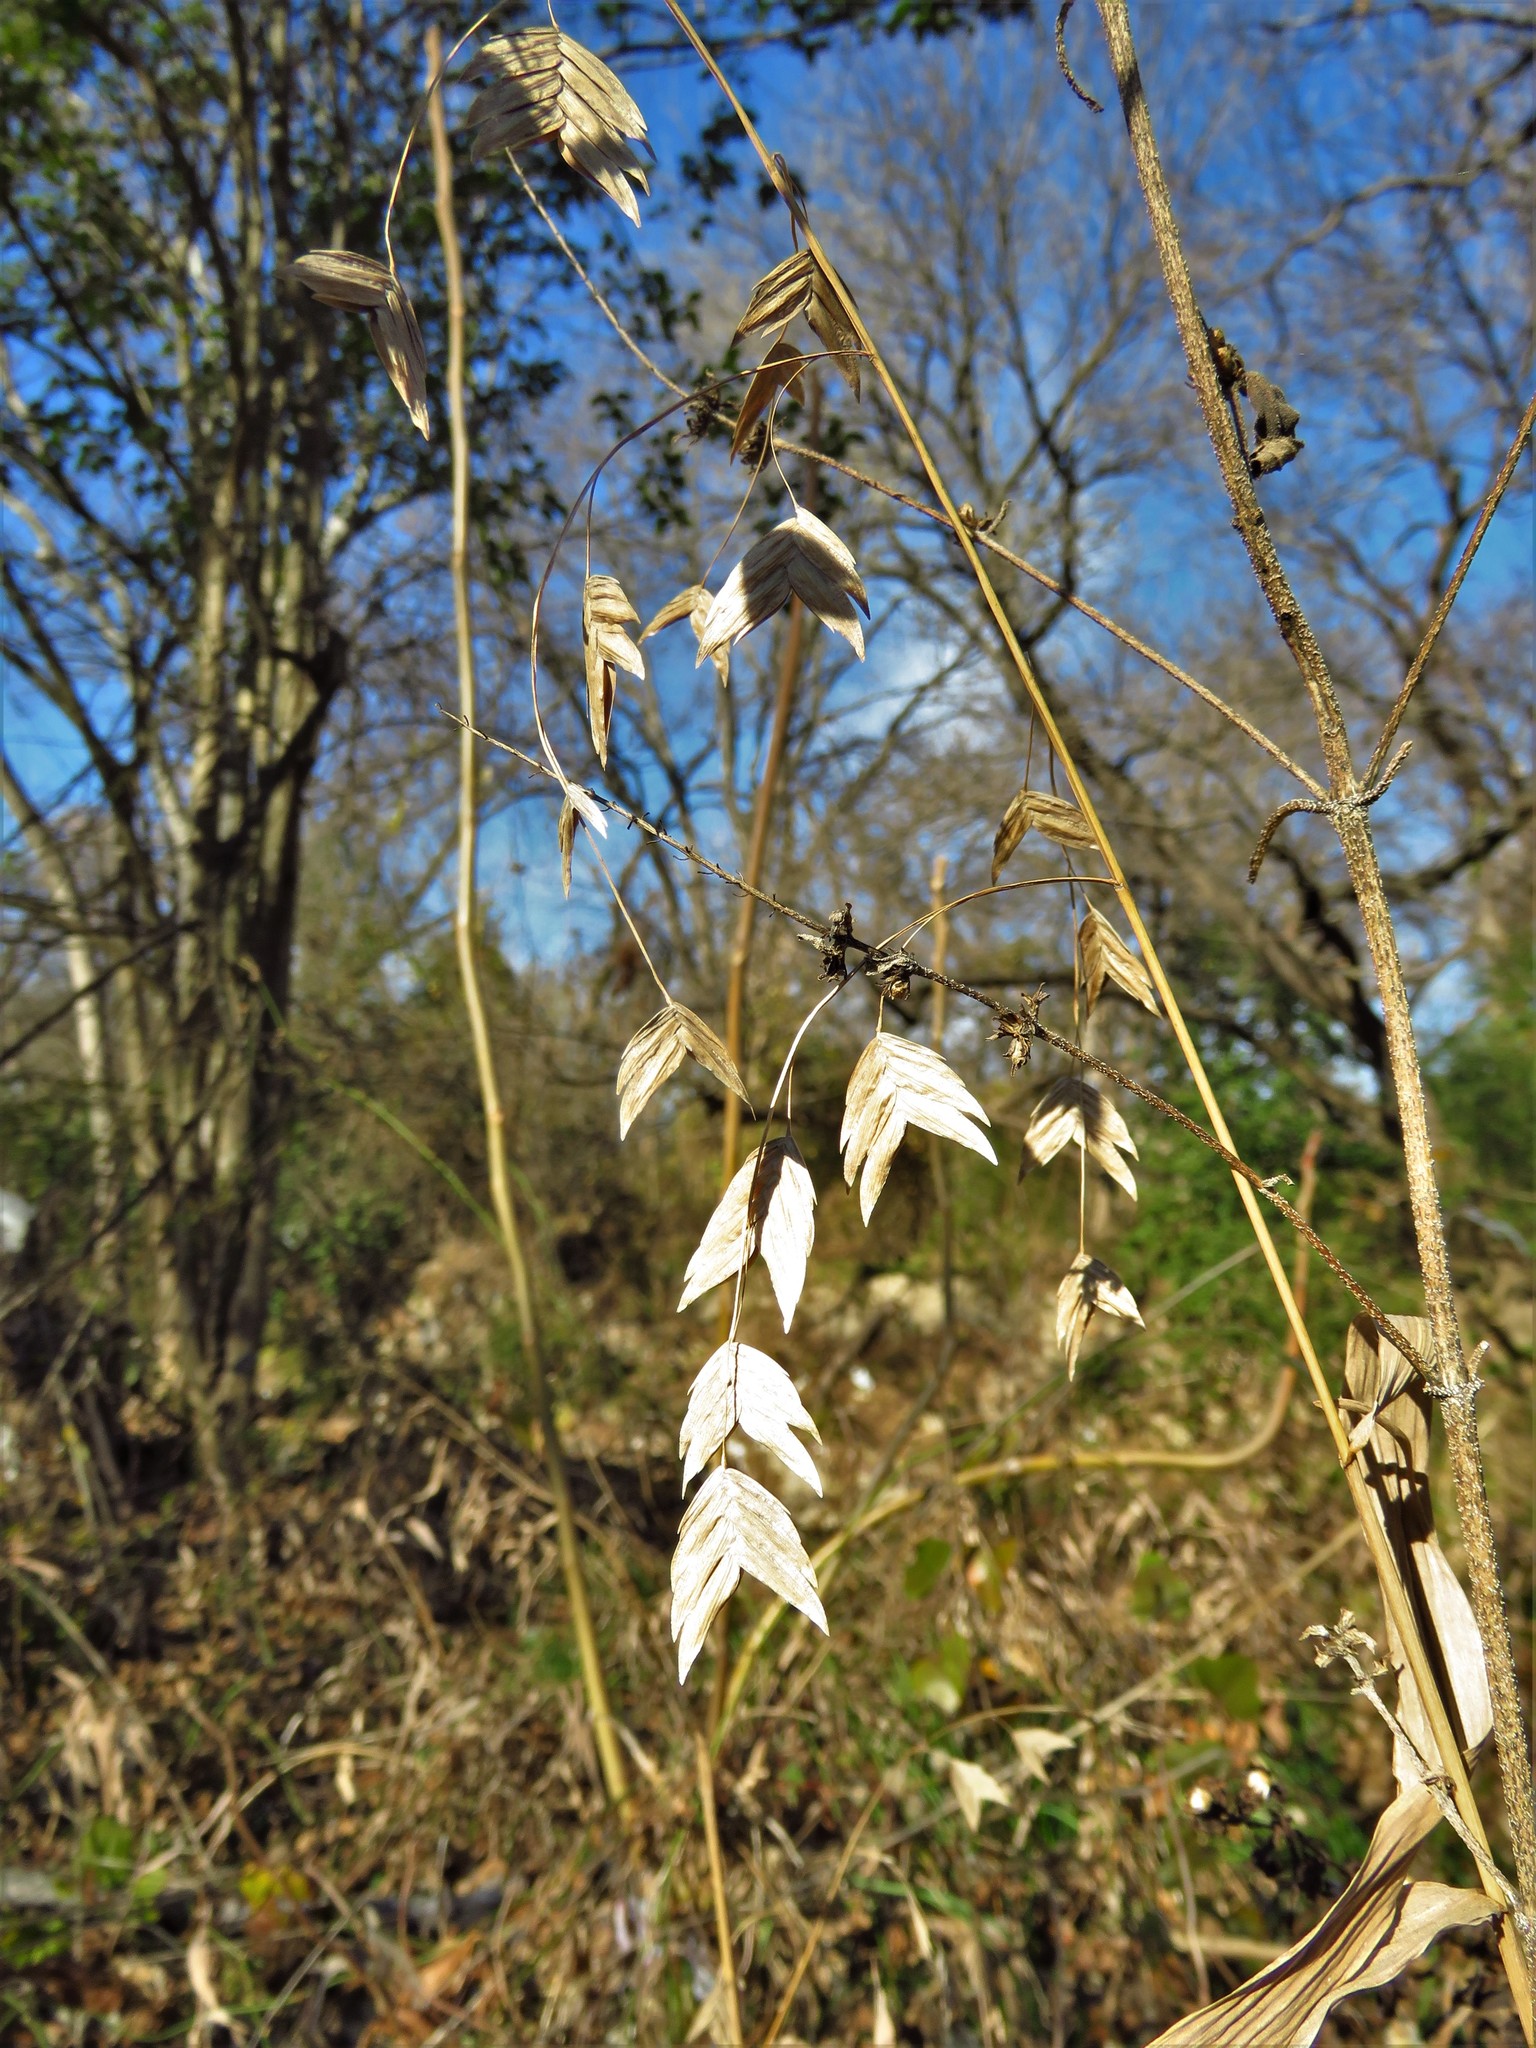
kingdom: Plantae
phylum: Tracheophyta
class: Liliopsida
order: Poales
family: Poaceae
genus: Chasmanthium
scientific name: Chasmanthium latifolium
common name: Broad-leaved chasmanthium
